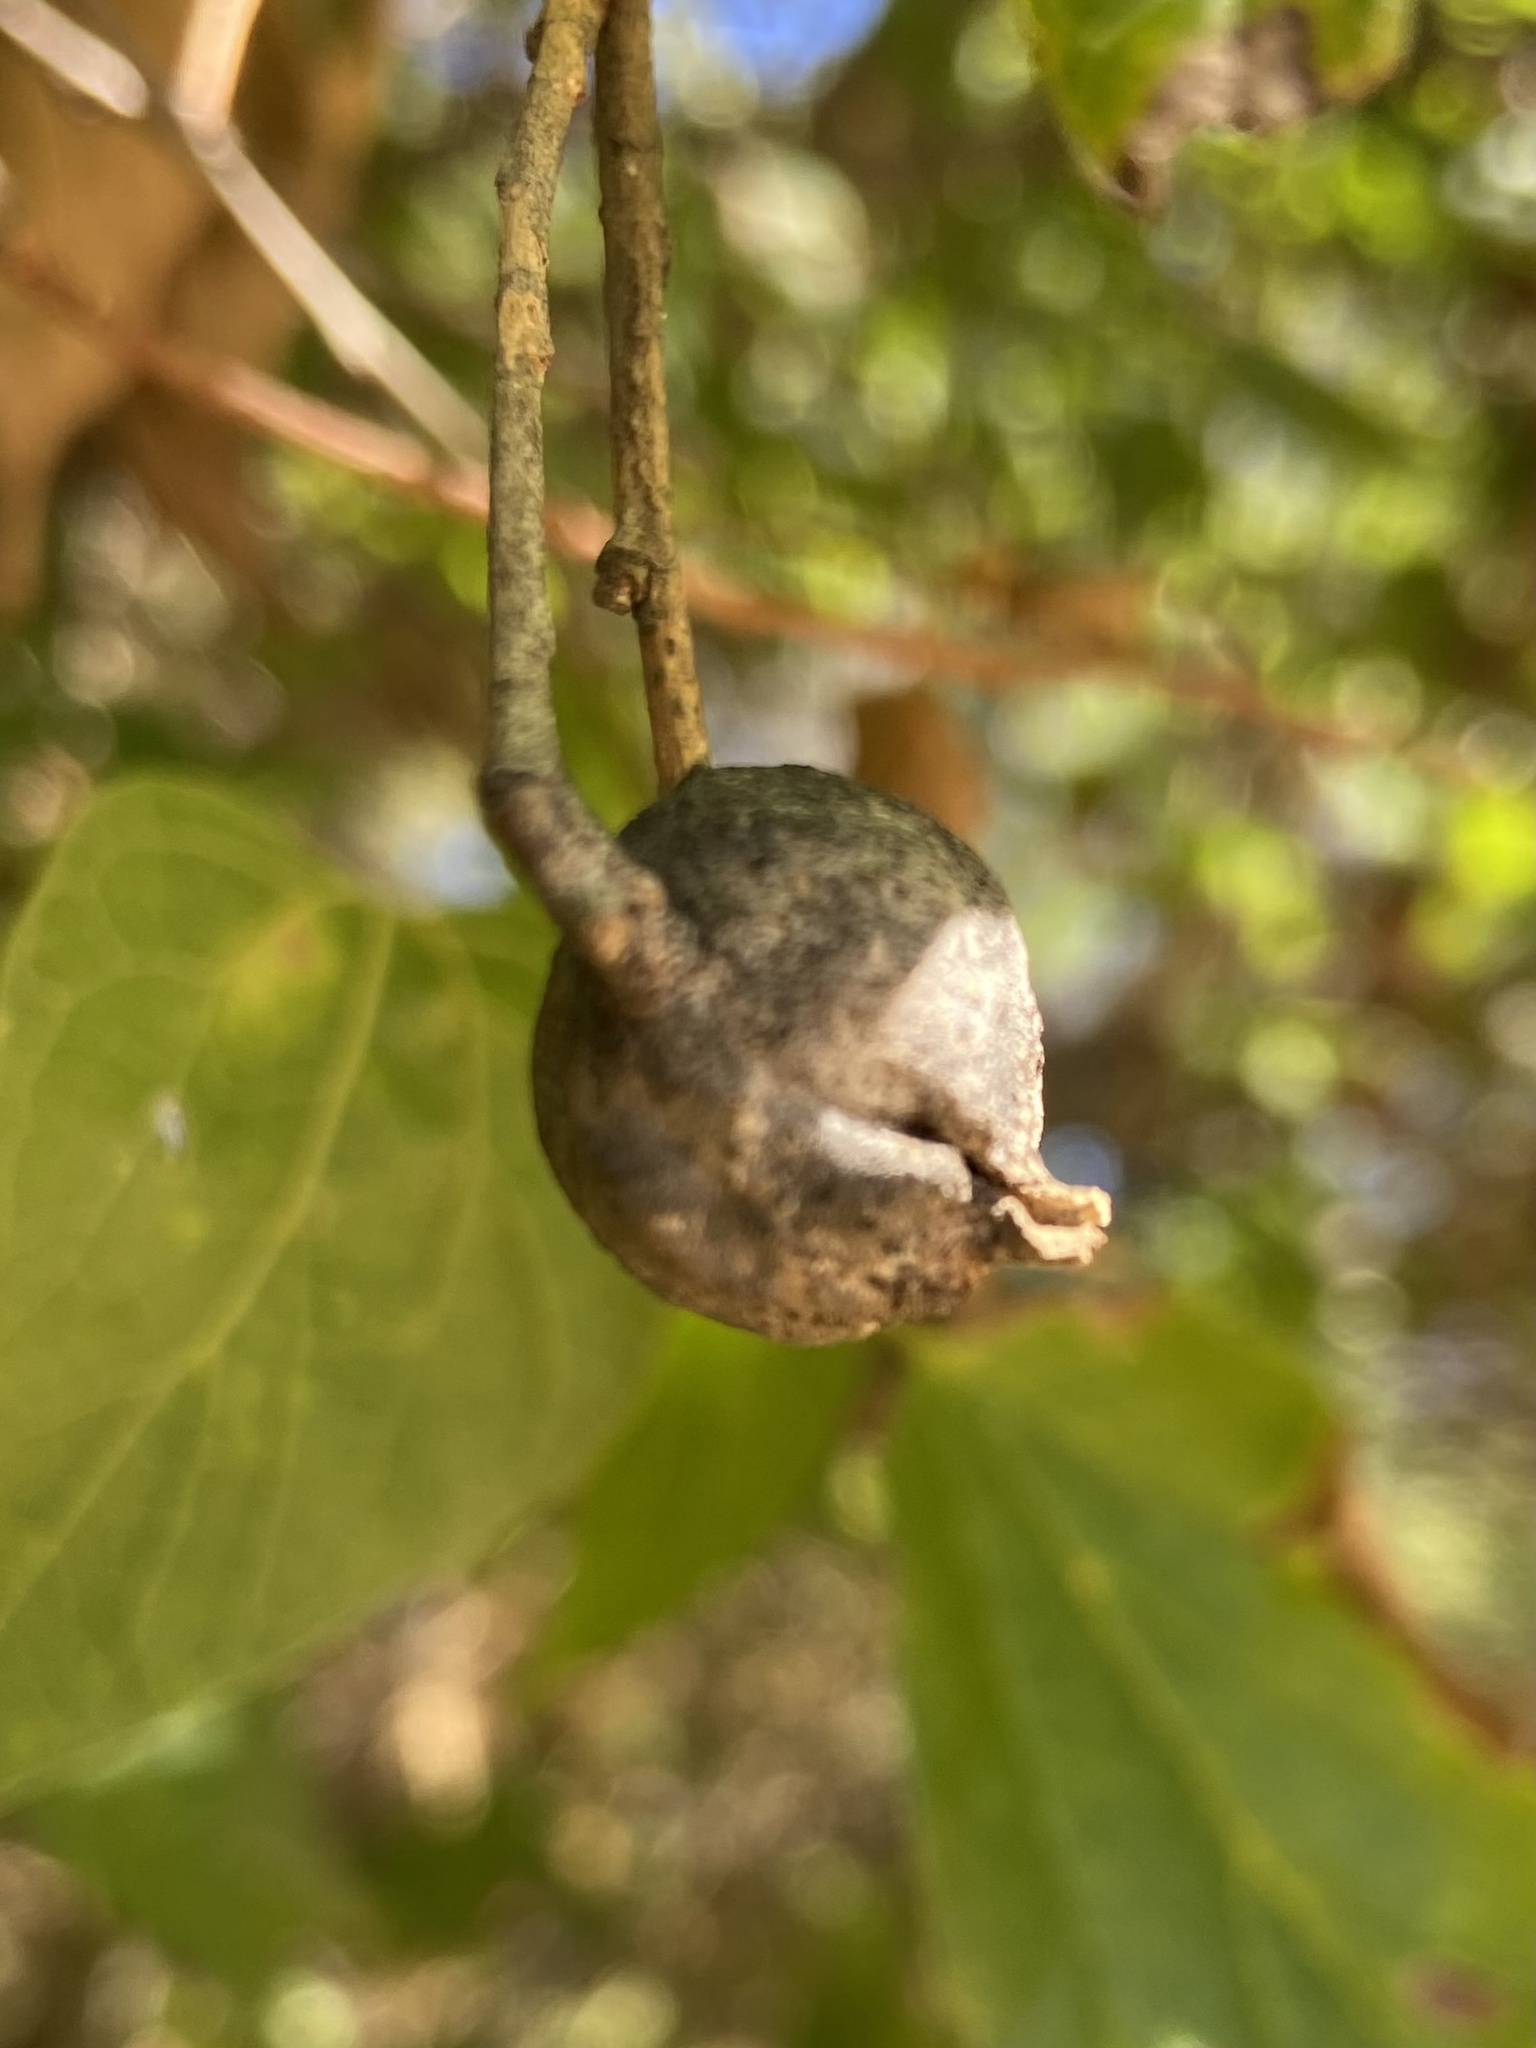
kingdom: Animalia
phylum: Arthropoda
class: Insecta
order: Hemiptera
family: Aphalaridae
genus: Pachypsylla
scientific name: Pachypsylla venusta
